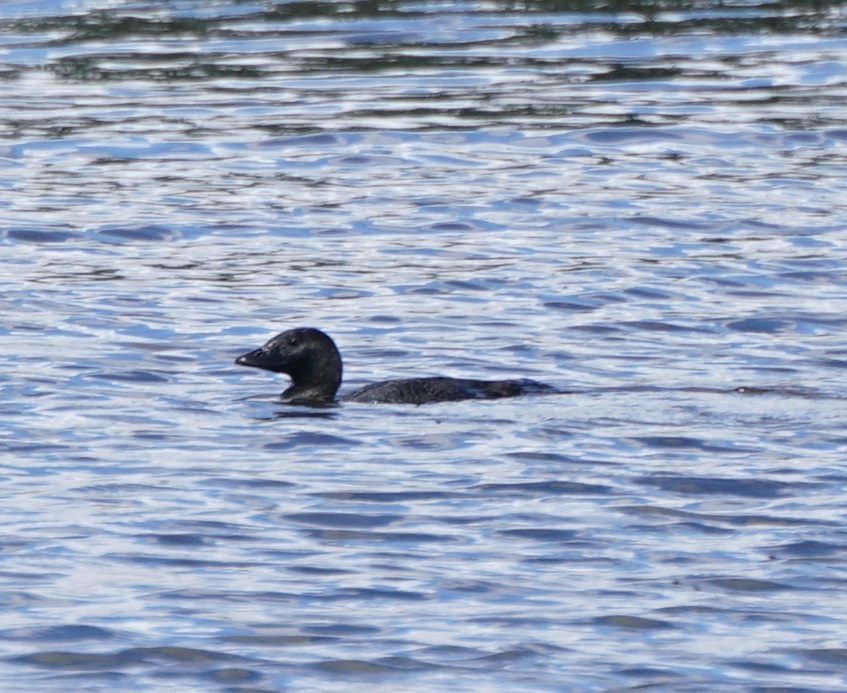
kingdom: Animalia
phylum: Chordata
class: Aves
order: Anseriformes
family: Anatidae
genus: Biziura
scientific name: Biziura lobata
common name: Musk duck
